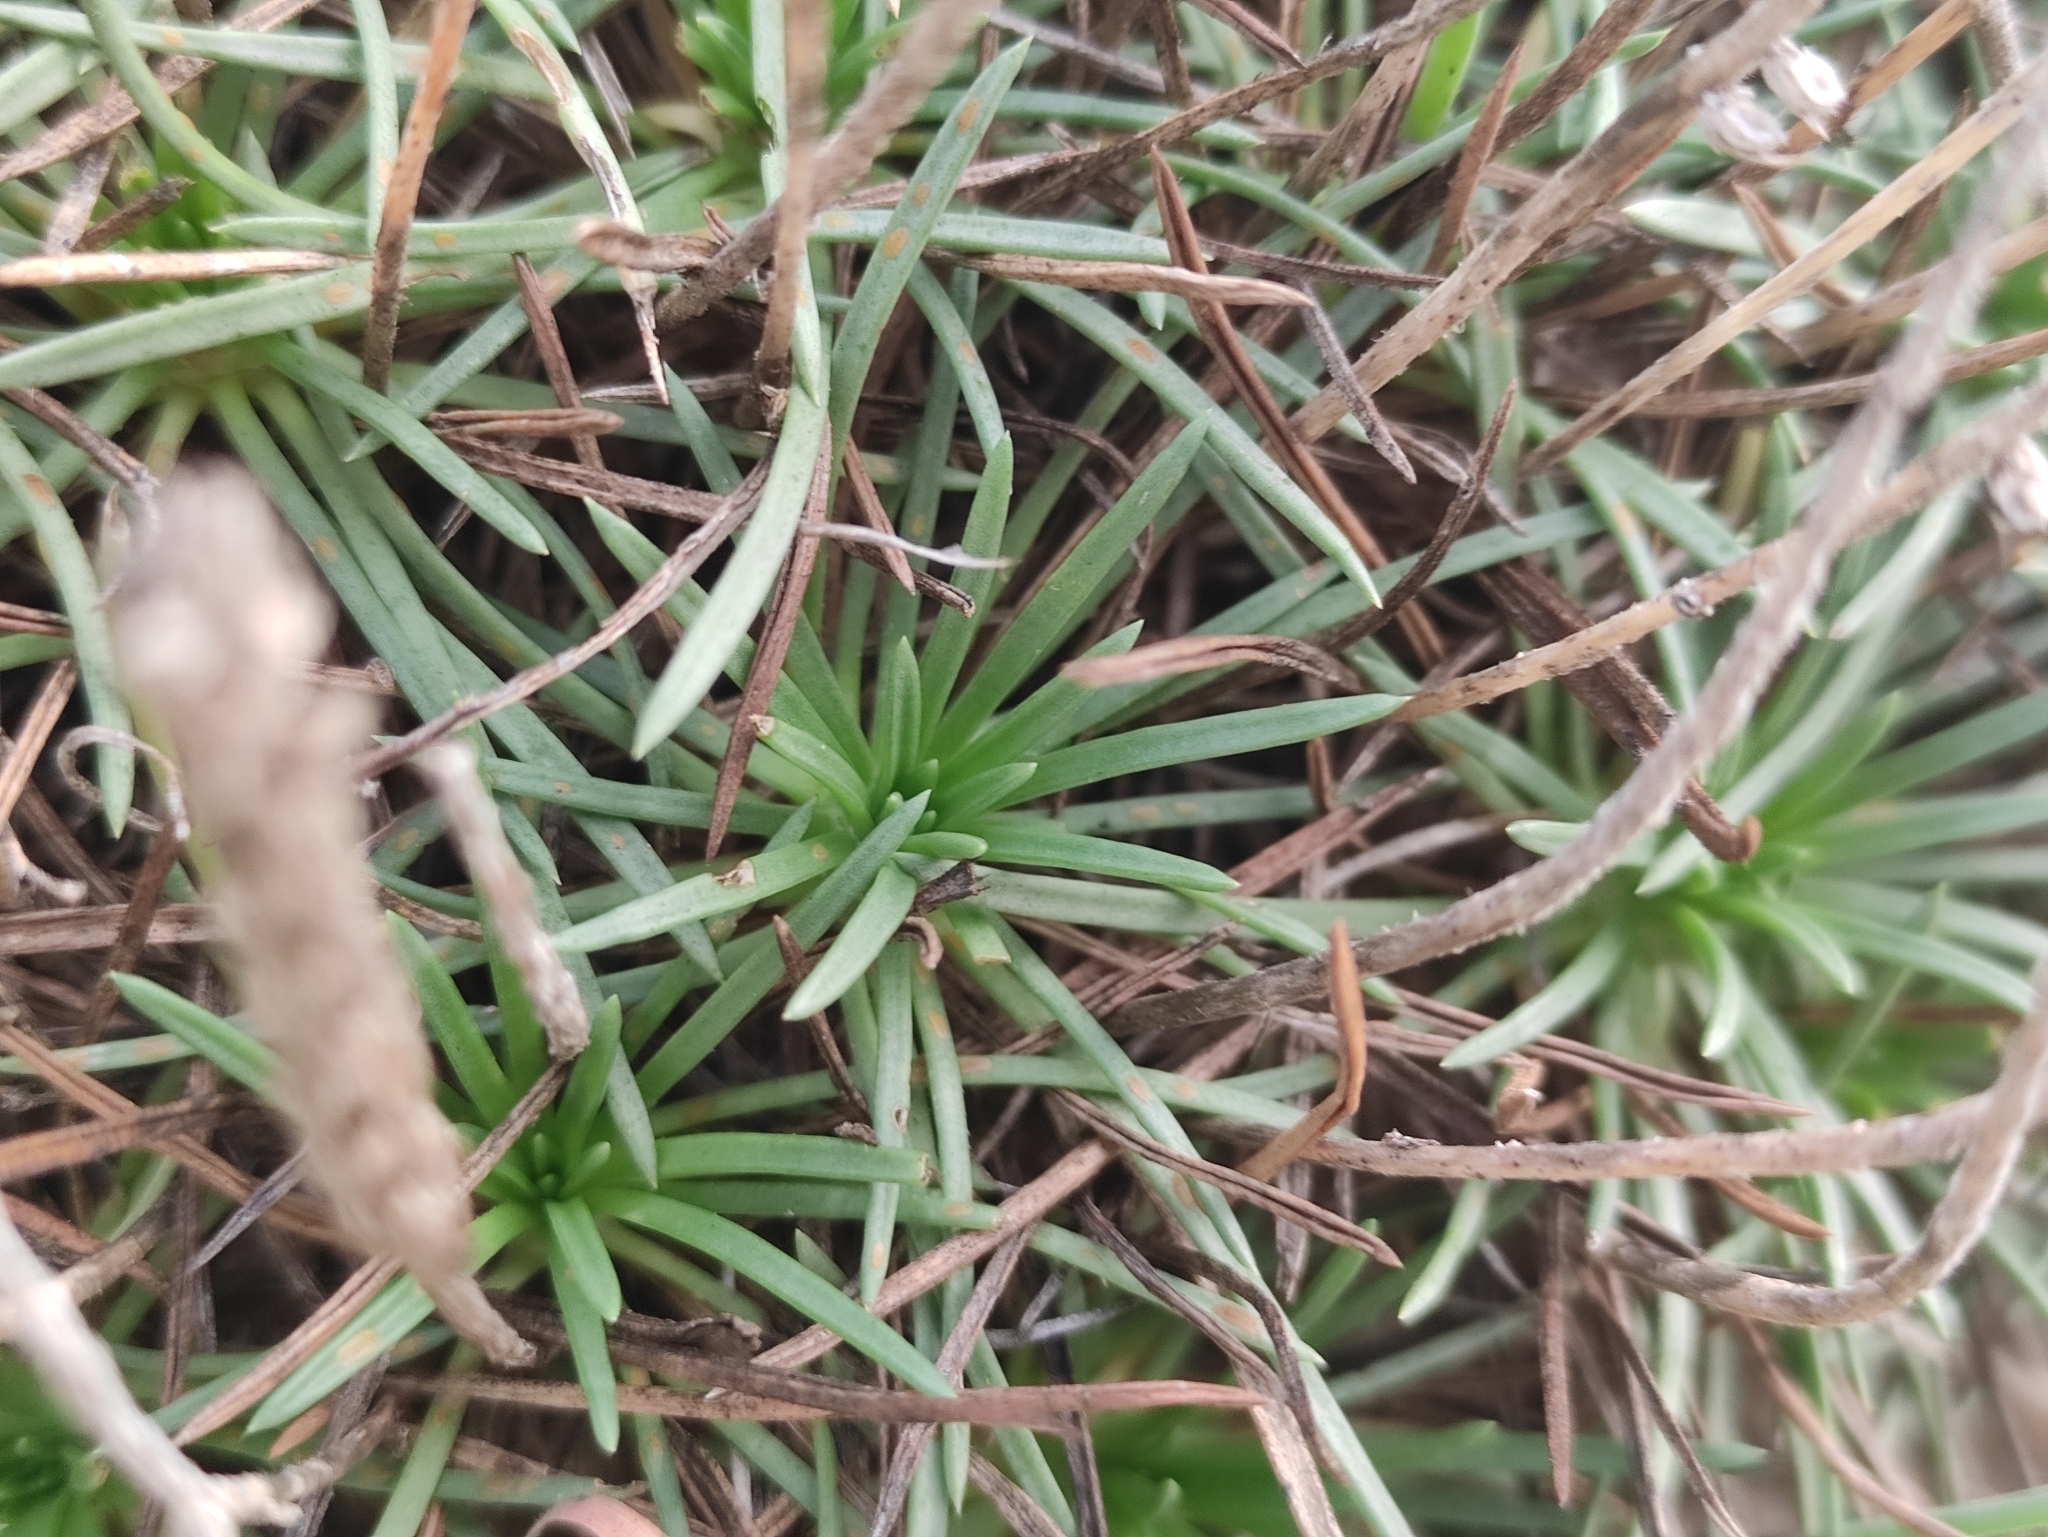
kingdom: Plantae
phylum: Tracheophyta
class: Magnoliopsida
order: Lamiales
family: Plantaginaceae
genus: Plantago
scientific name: Plantago subulata
